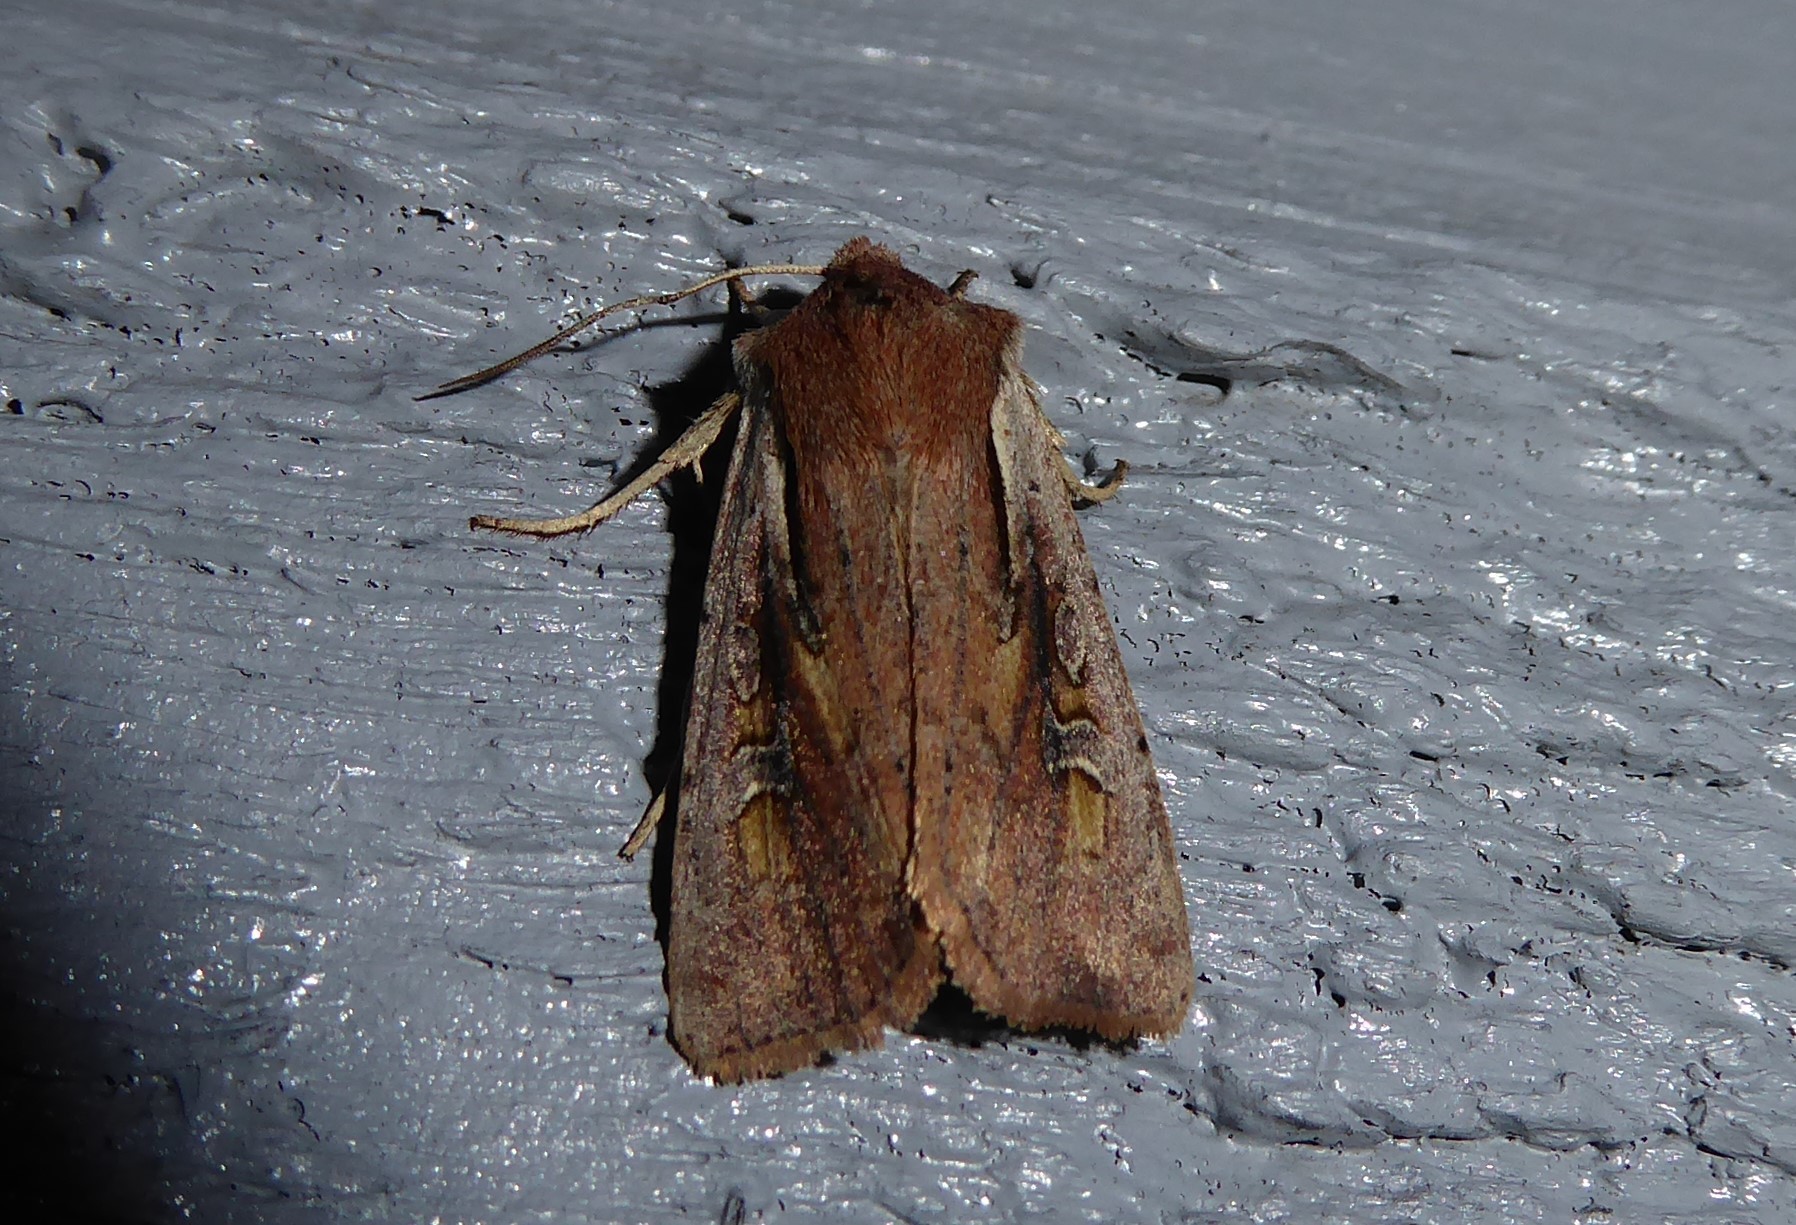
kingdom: Animalia
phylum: Arthropoda
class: Insecta
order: Lepidoptera
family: Noctuidae
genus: Ichneutica
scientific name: Ichneutica atristriga
